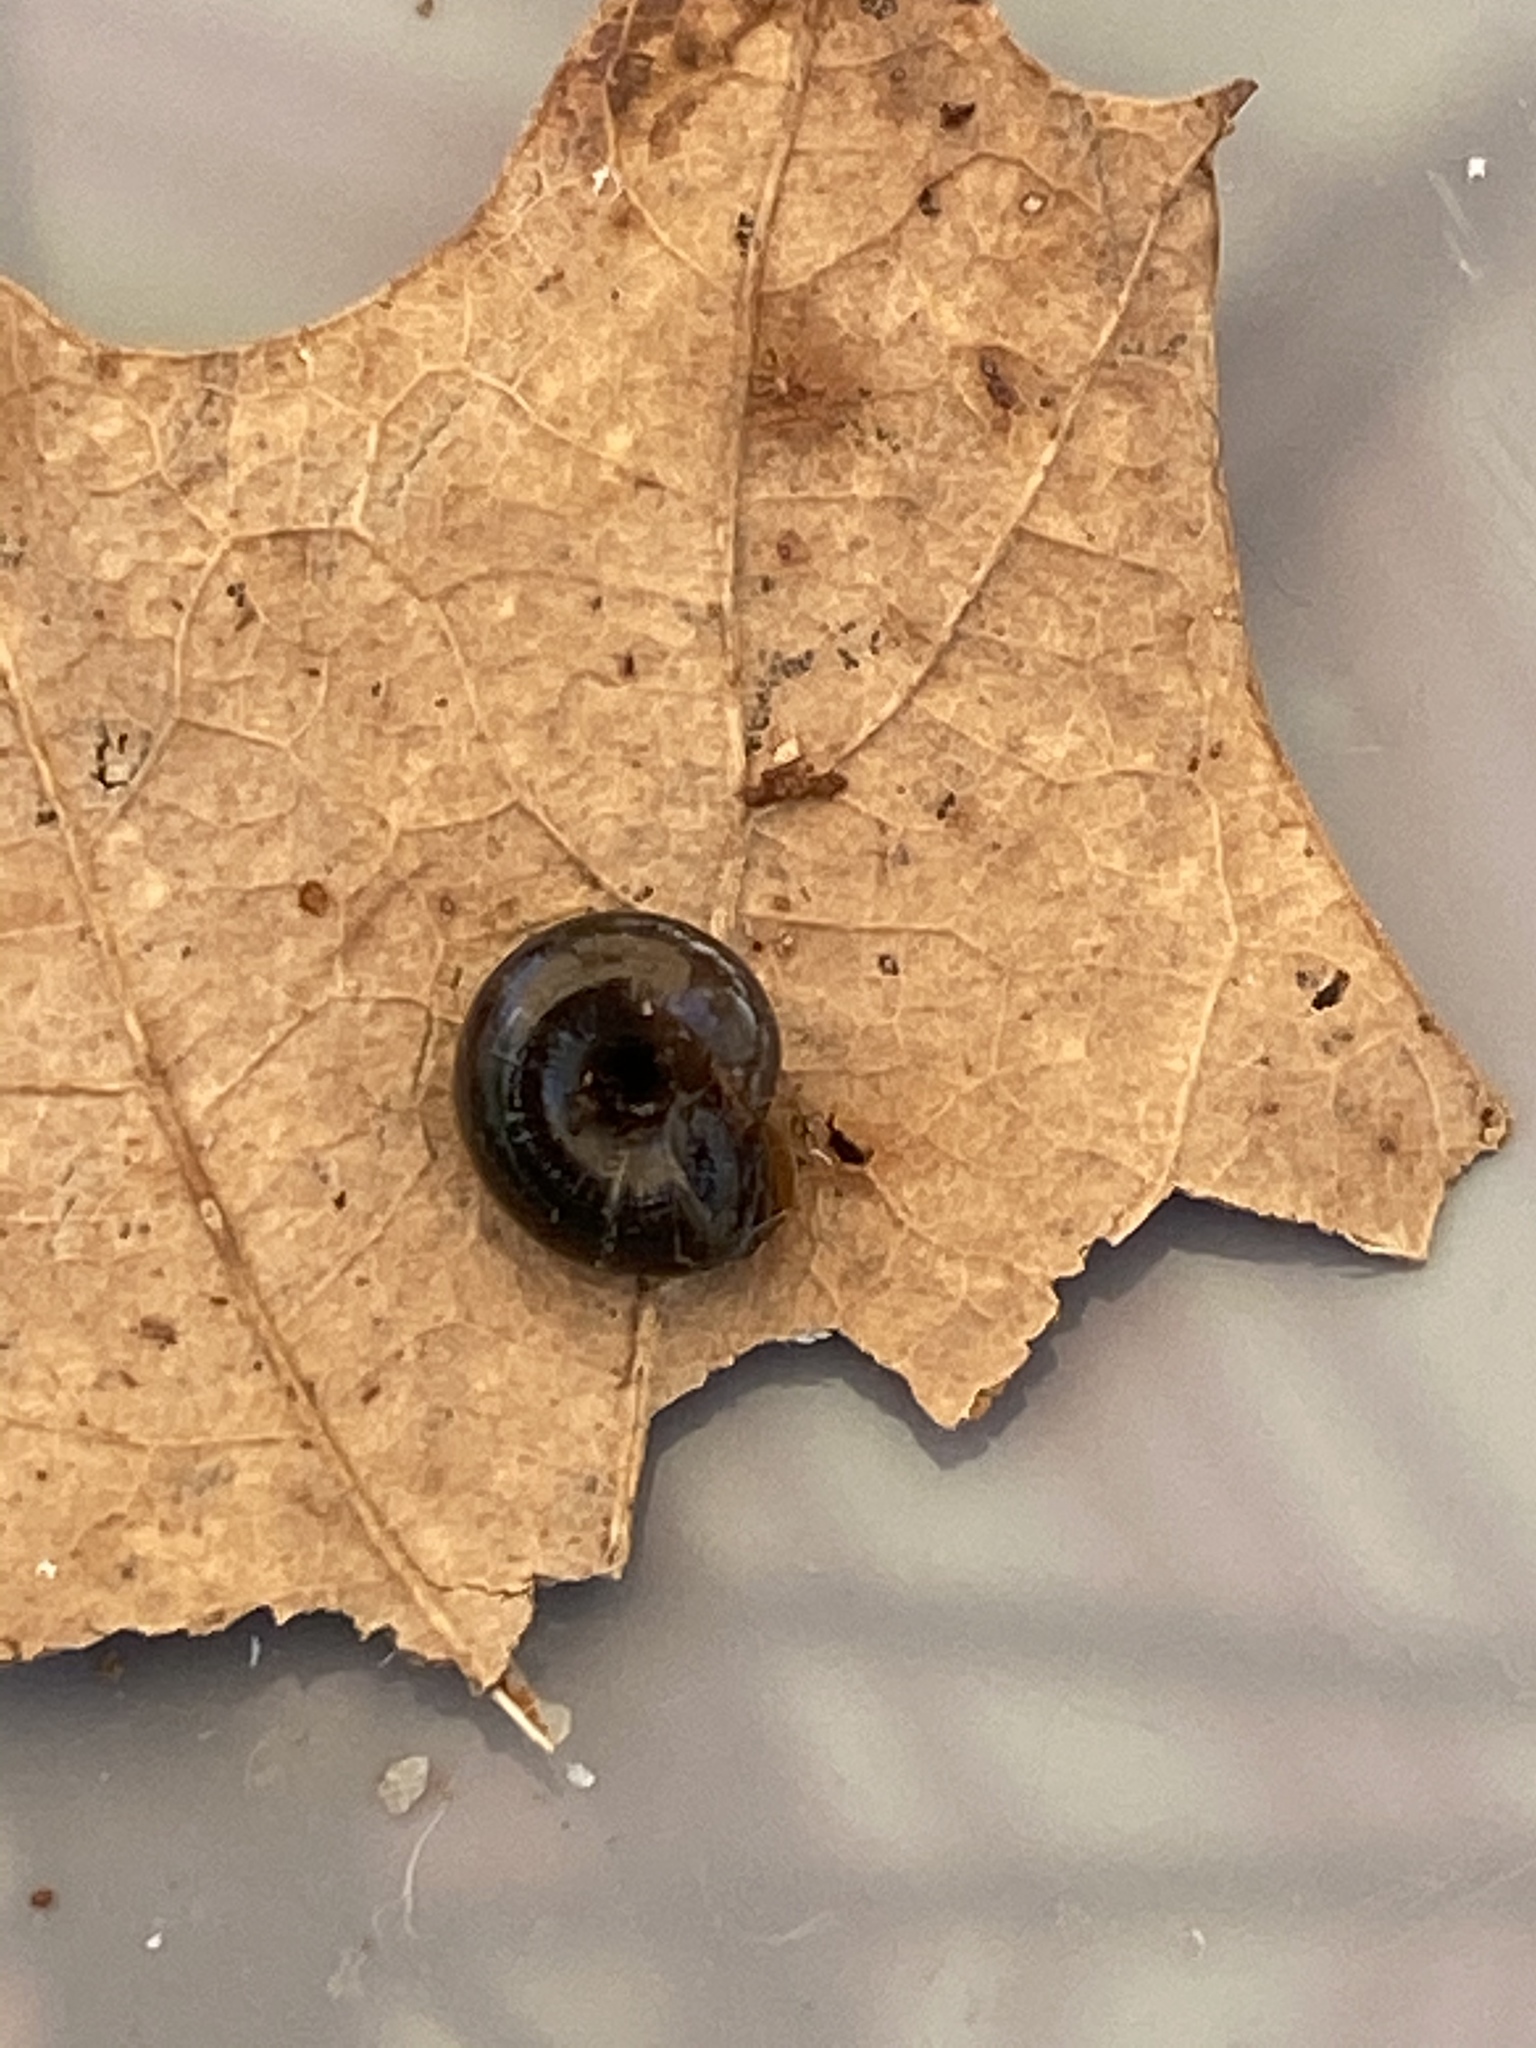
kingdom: Animalia
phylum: Mollusca
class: Gastropoda
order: Stylommatophora
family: Gastrodontidae
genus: Zonitoides
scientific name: Zonitoides nitidus
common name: Shiny glass snail
